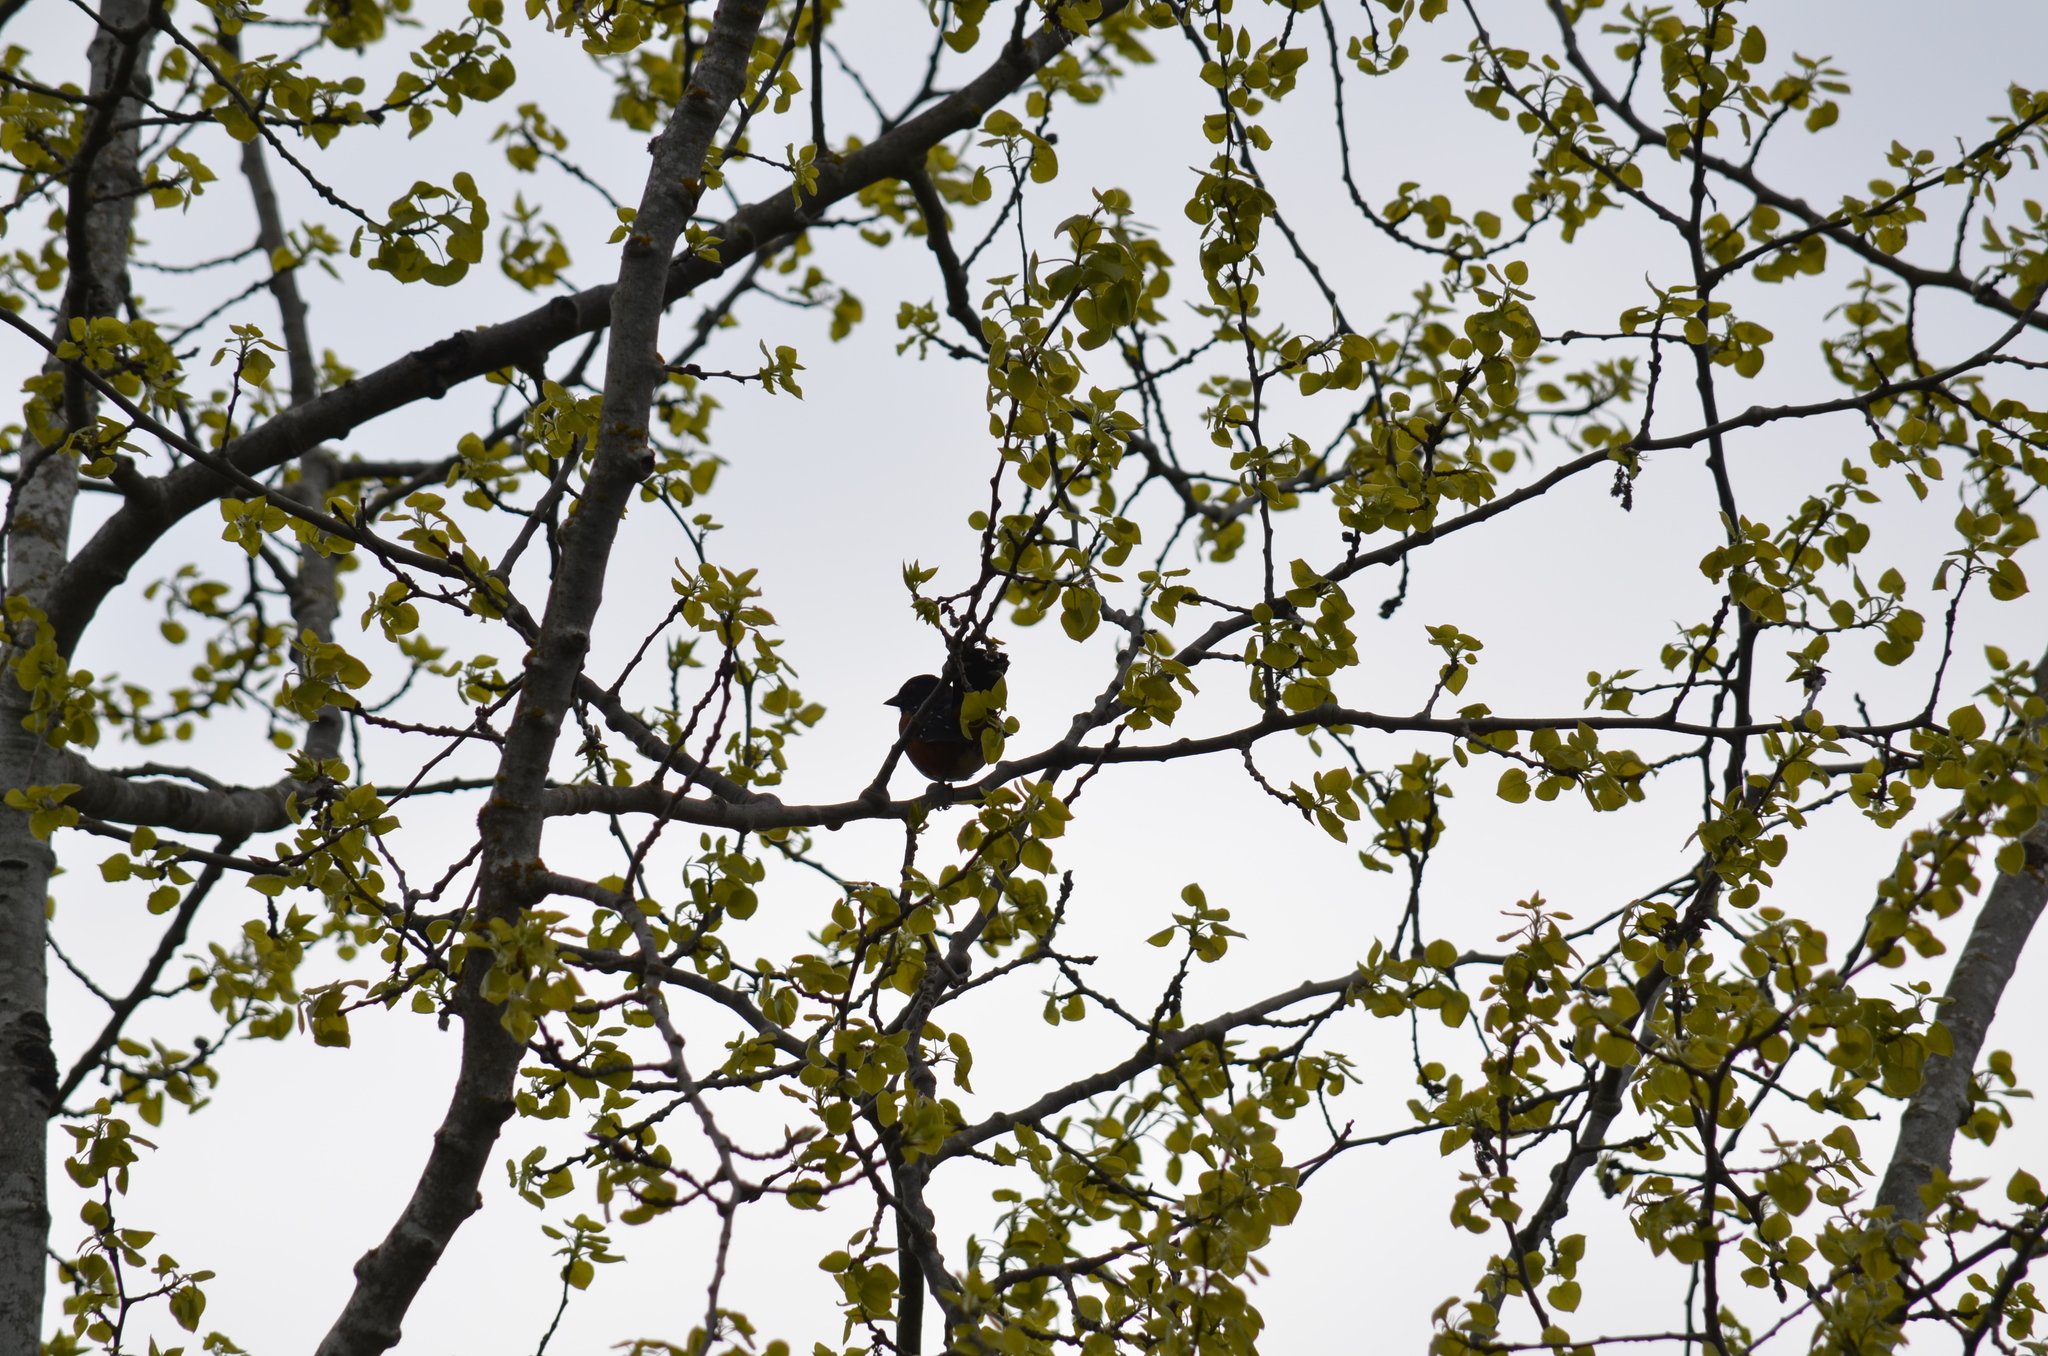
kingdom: Animalia
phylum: Chordata
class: Aves
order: Passeriformes
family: Passerellidae
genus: Pipilo
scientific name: Pipilo maculatus
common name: Spotted towhee
